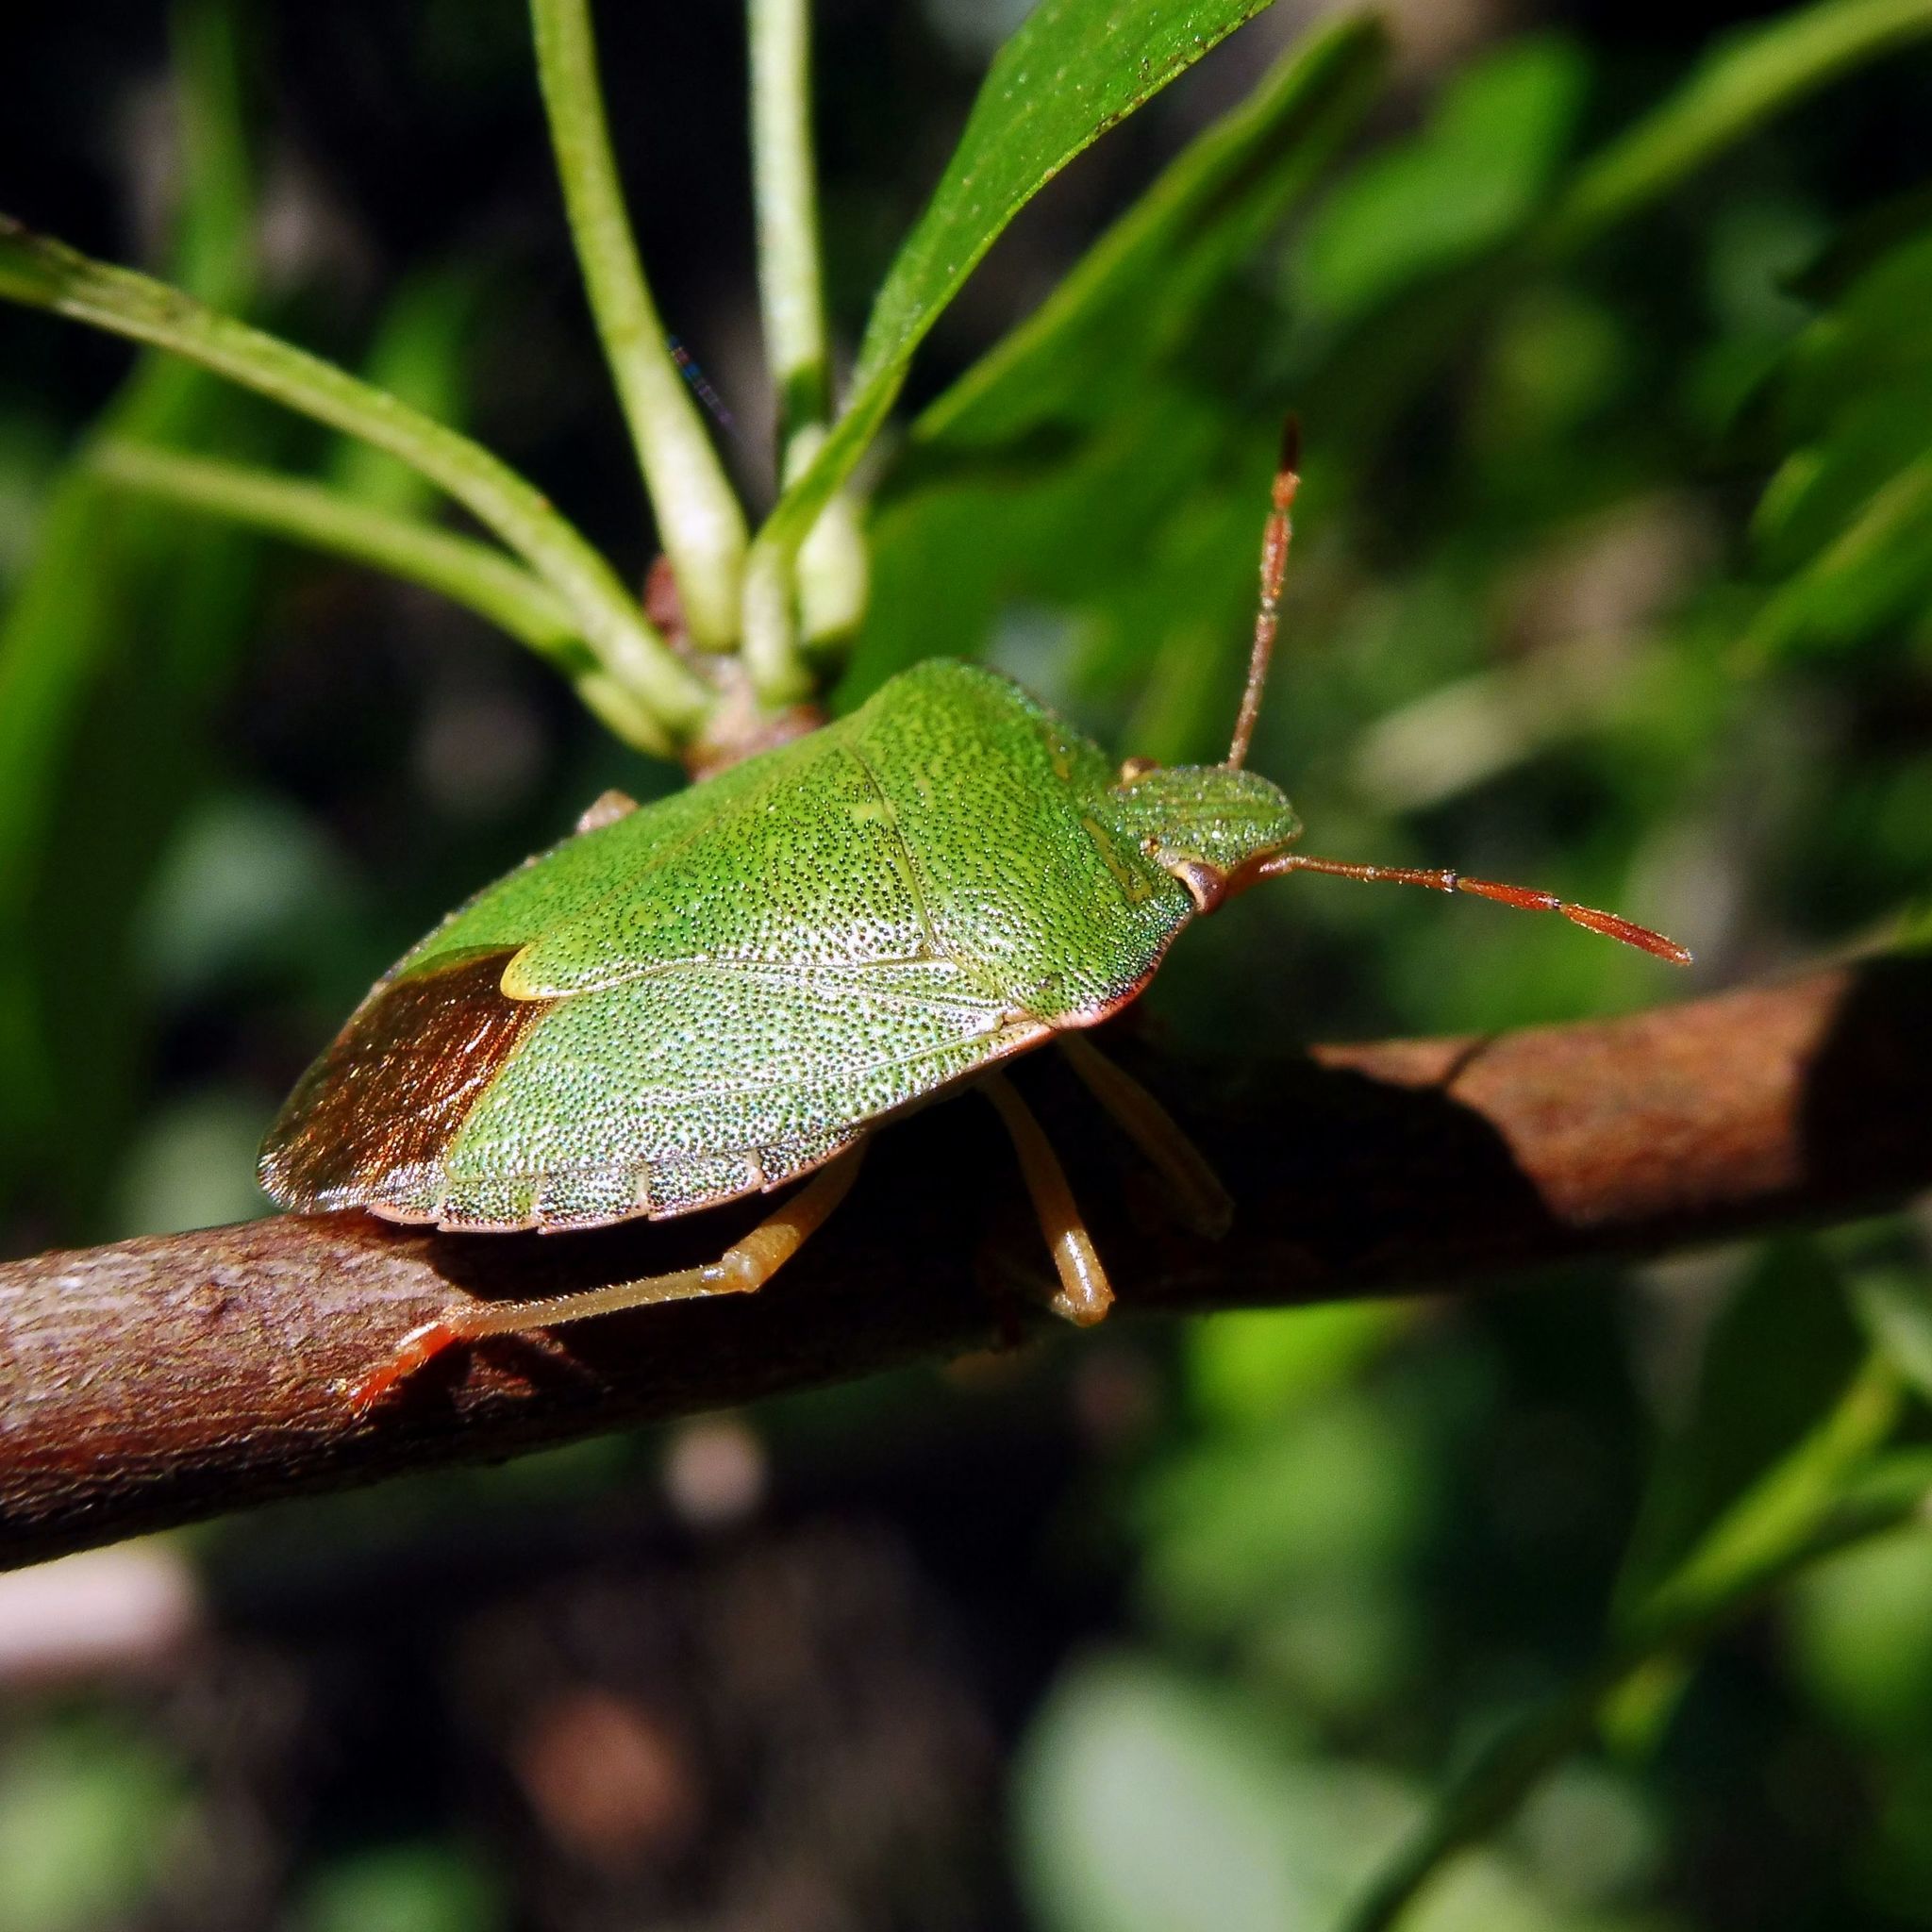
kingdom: Animalia
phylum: Arthropoda
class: Insecta
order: Hemiptera
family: Pentatomidae
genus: Palomena
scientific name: Palomena prasina
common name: Green shieldbug
